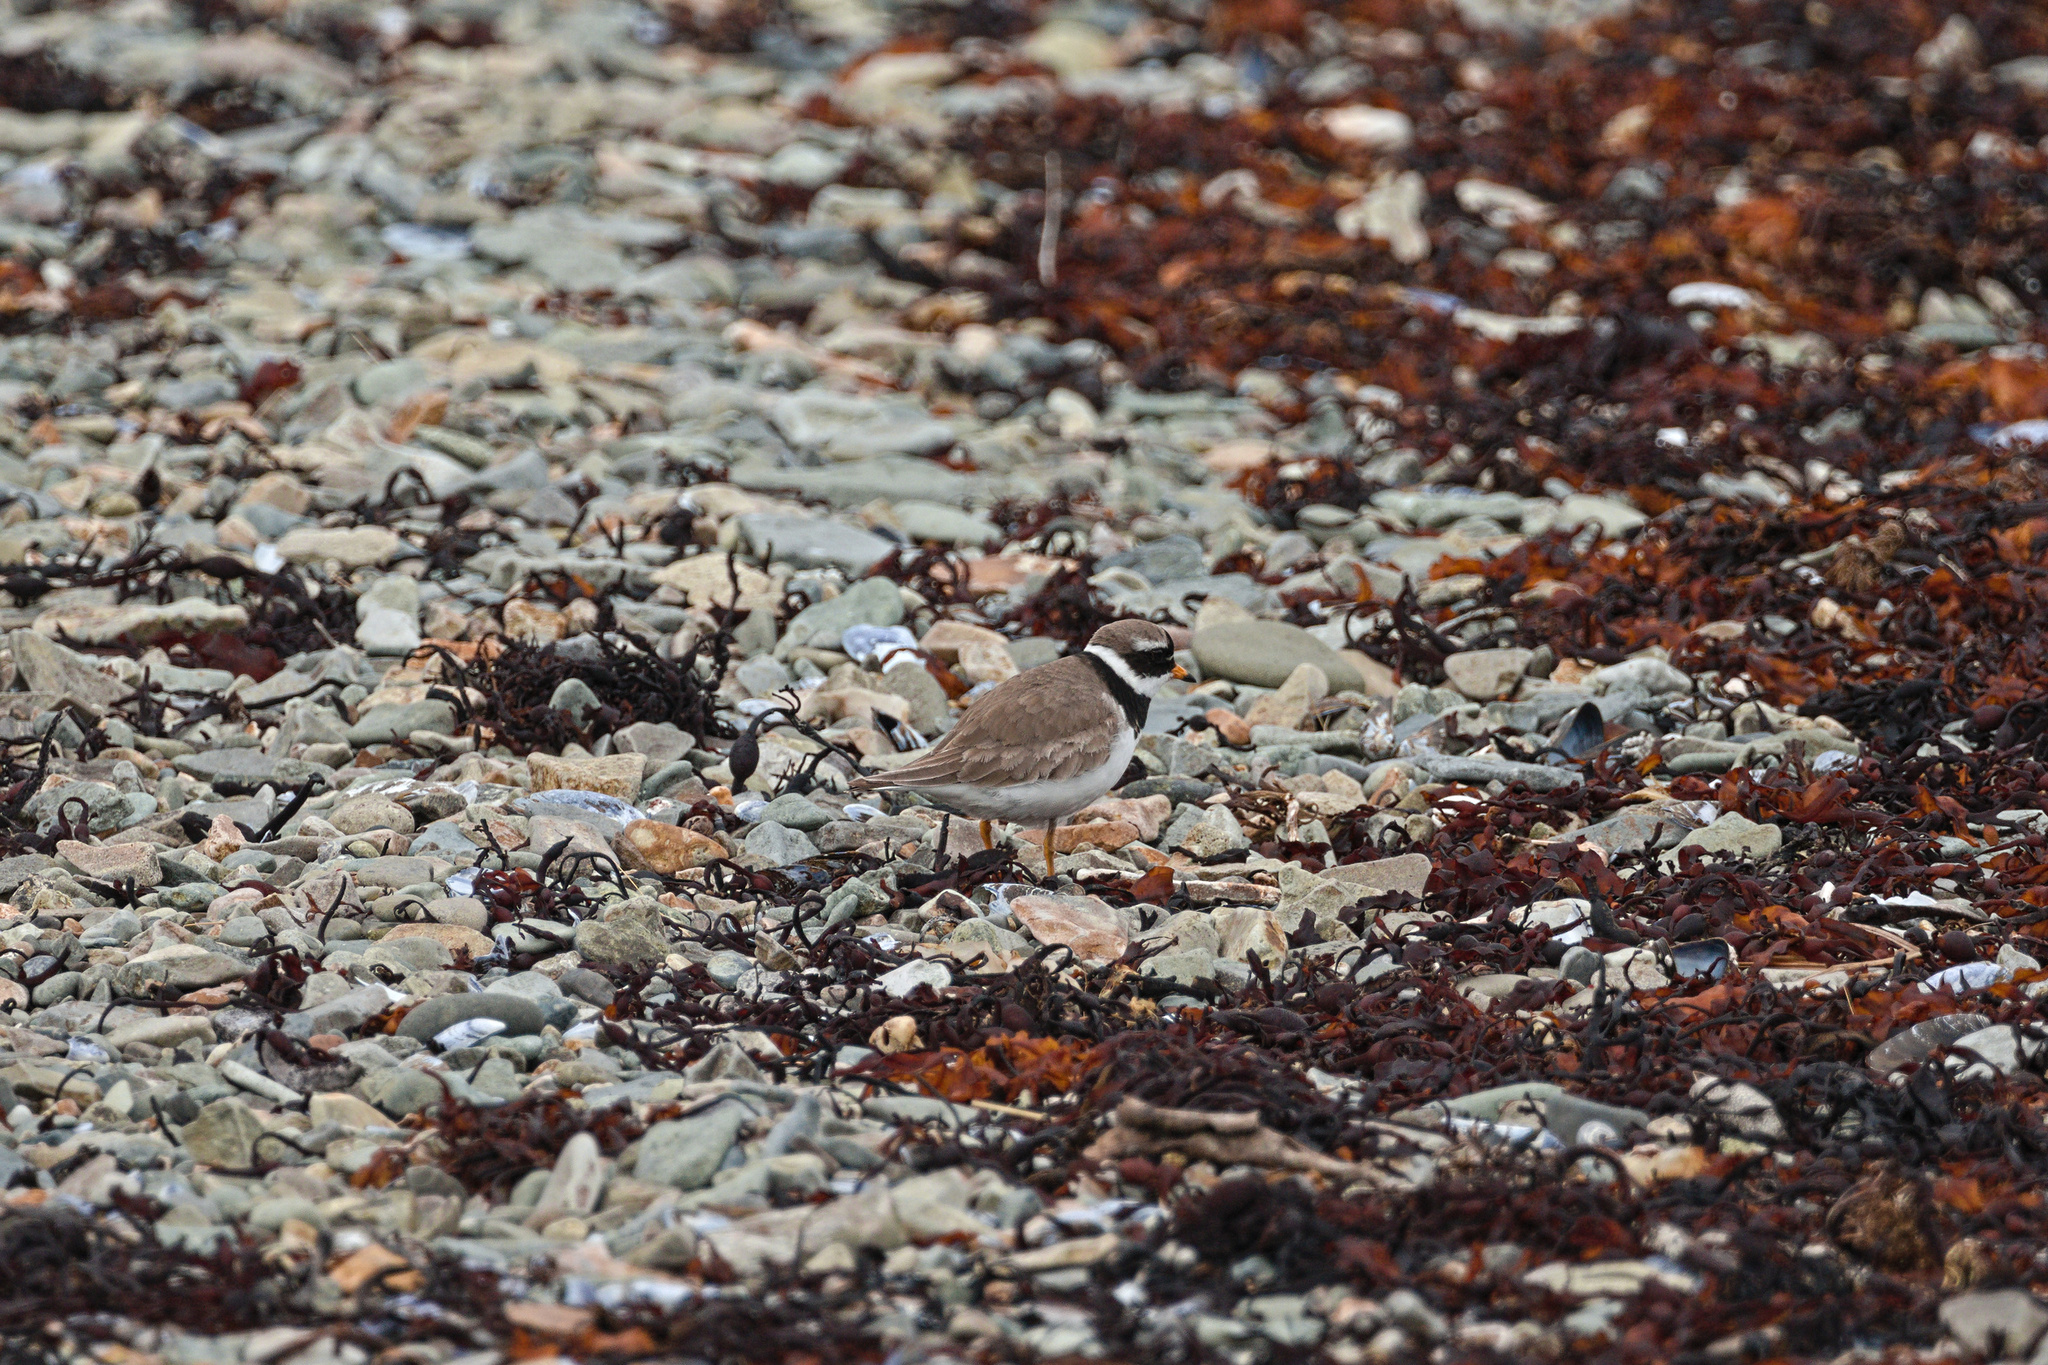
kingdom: Animalia
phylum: Chordata
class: Aves
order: Charadriiformes
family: Charadriidae
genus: Charadrius
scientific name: Charadrius hiaticula
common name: Common ringed plover
